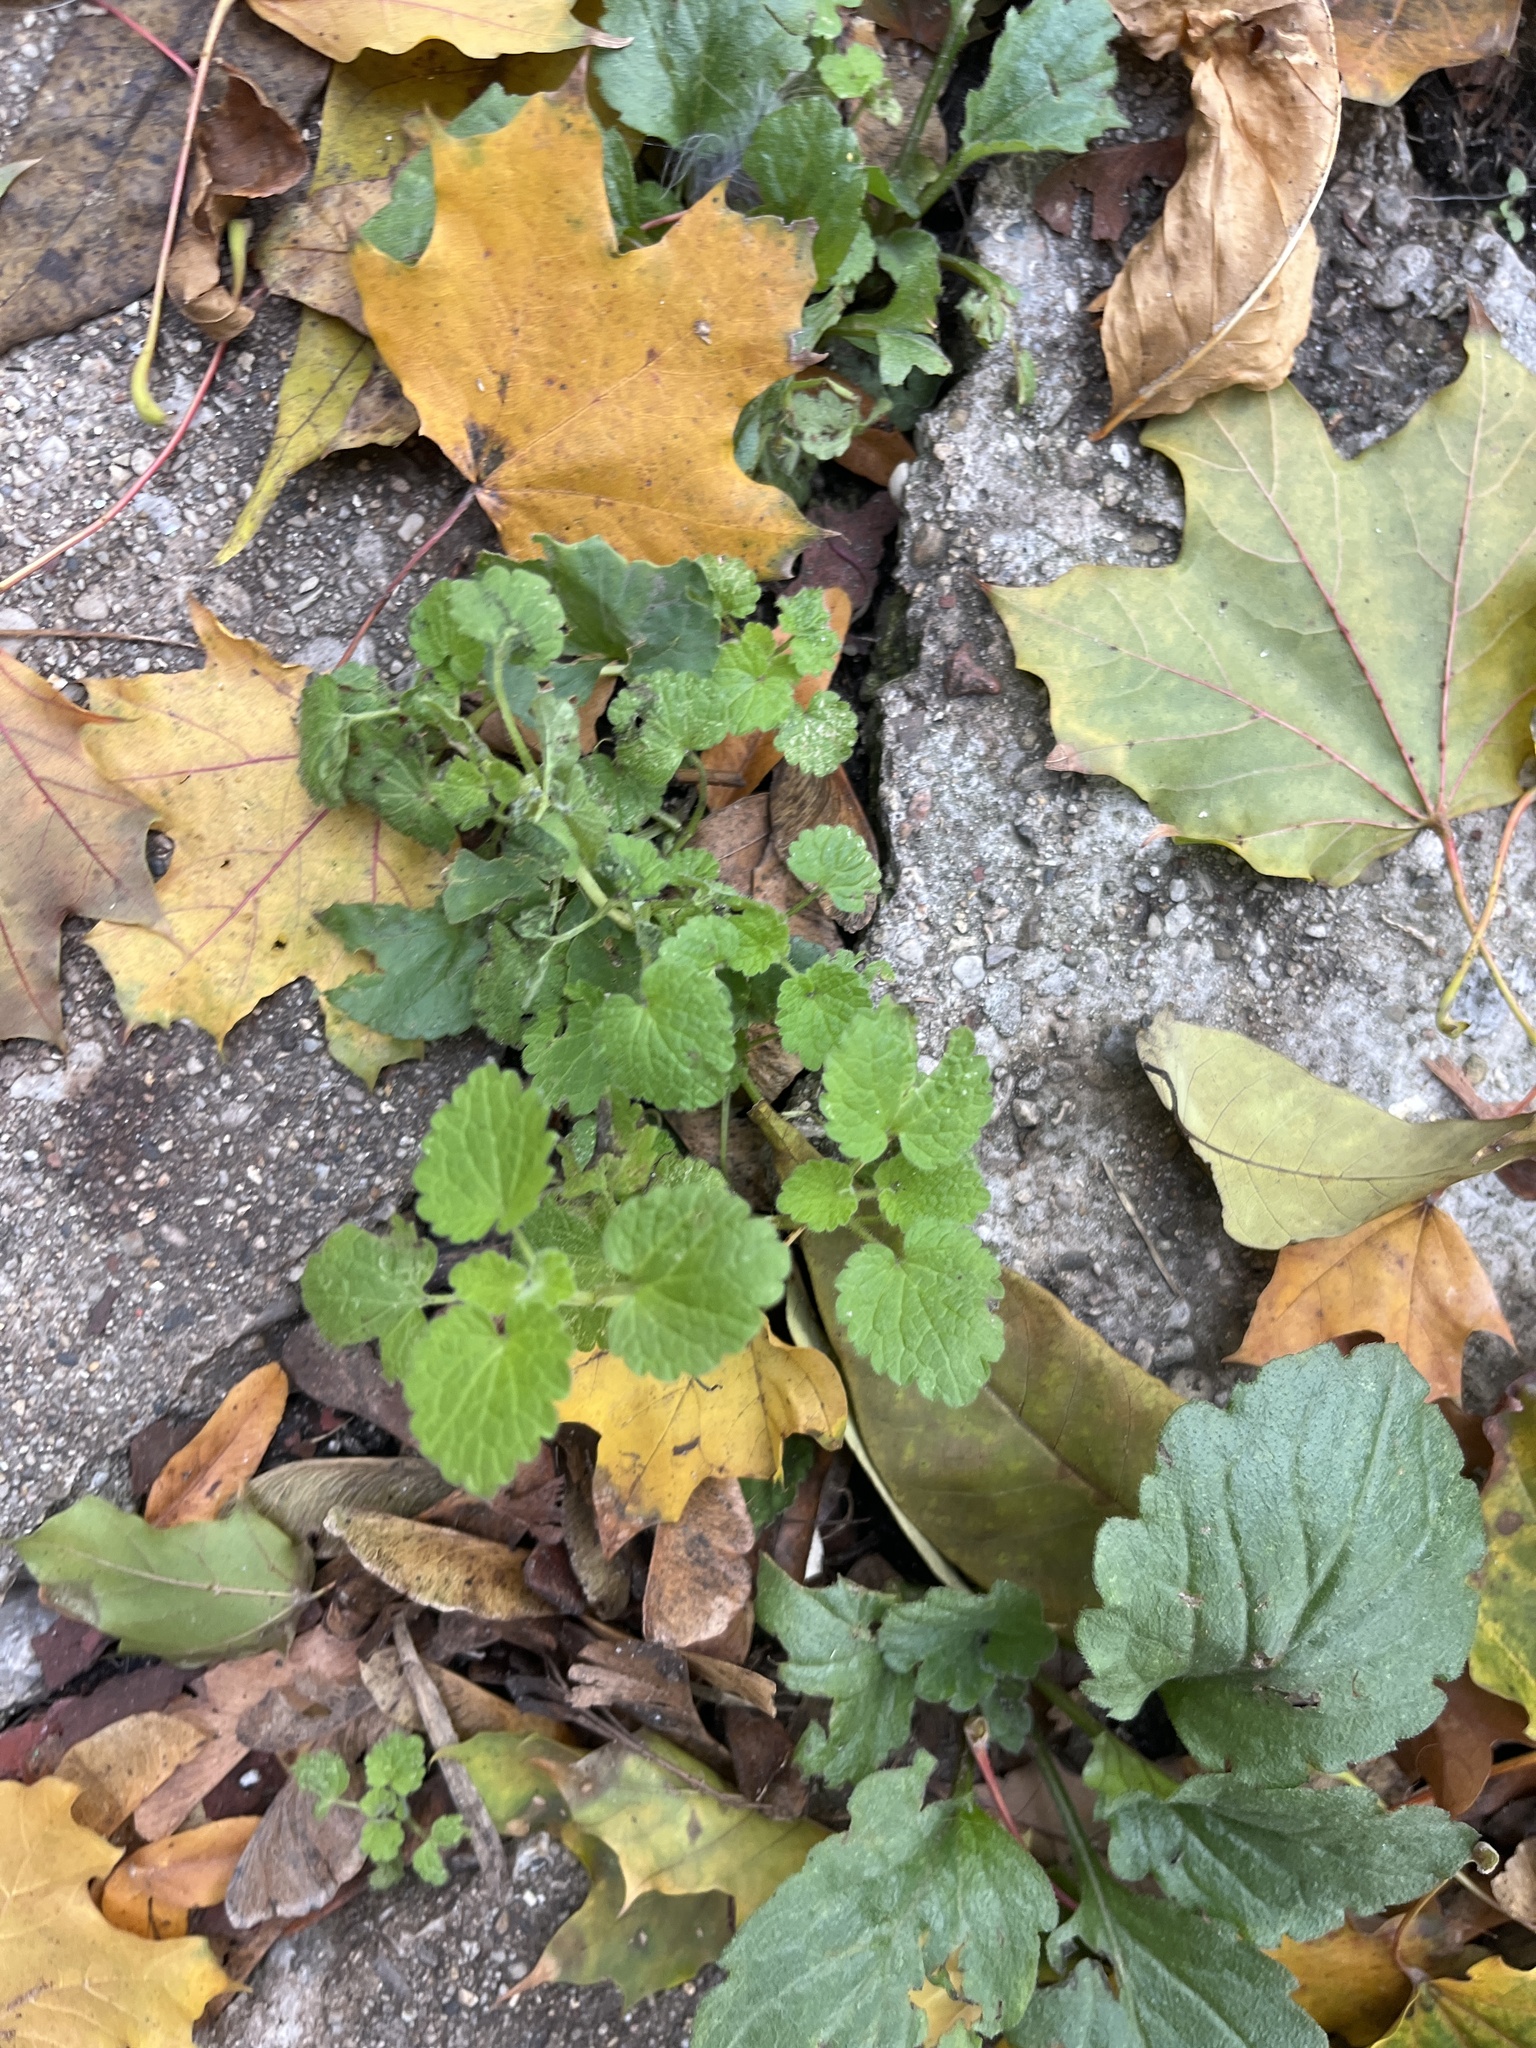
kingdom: Plantae
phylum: Tracheophyta
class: Magnoliopsida
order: Lamiales
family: Lamiaceae
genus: Lamium
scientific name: Lamium purpureum
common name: Red dead-nettle
